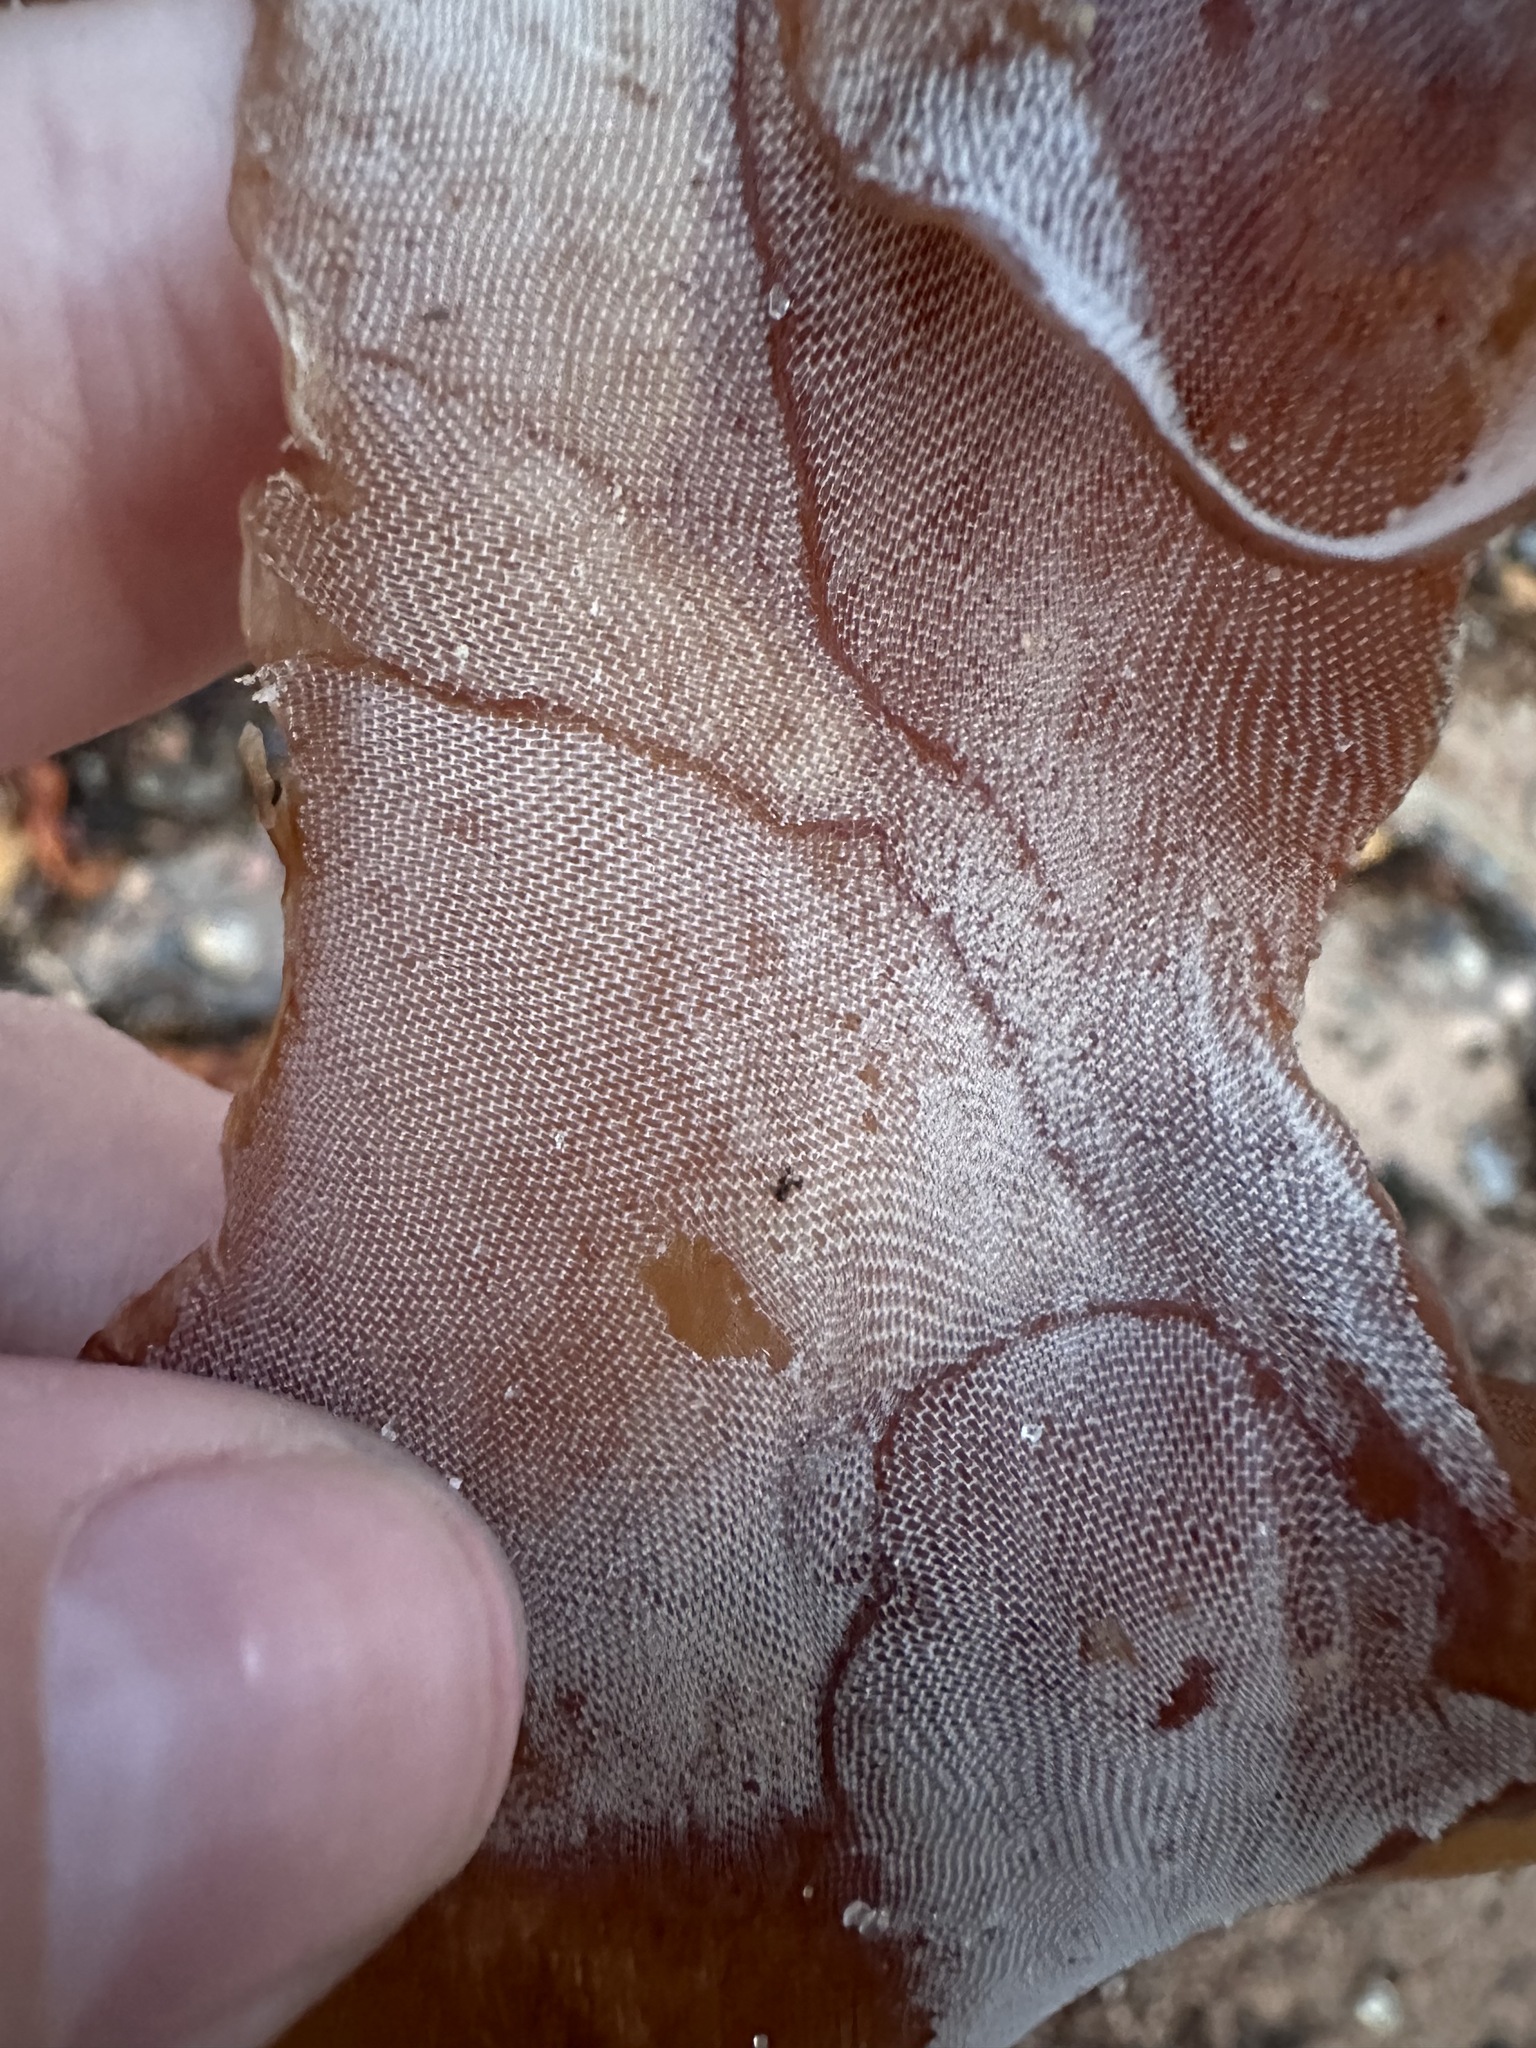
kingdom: Animalia
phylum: Bryozoa
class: Gymnolaemata
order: Cheilostomatida
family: Membraniporidae
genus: Membranipora
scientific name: Membranipora membranacea
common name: Sea mat
